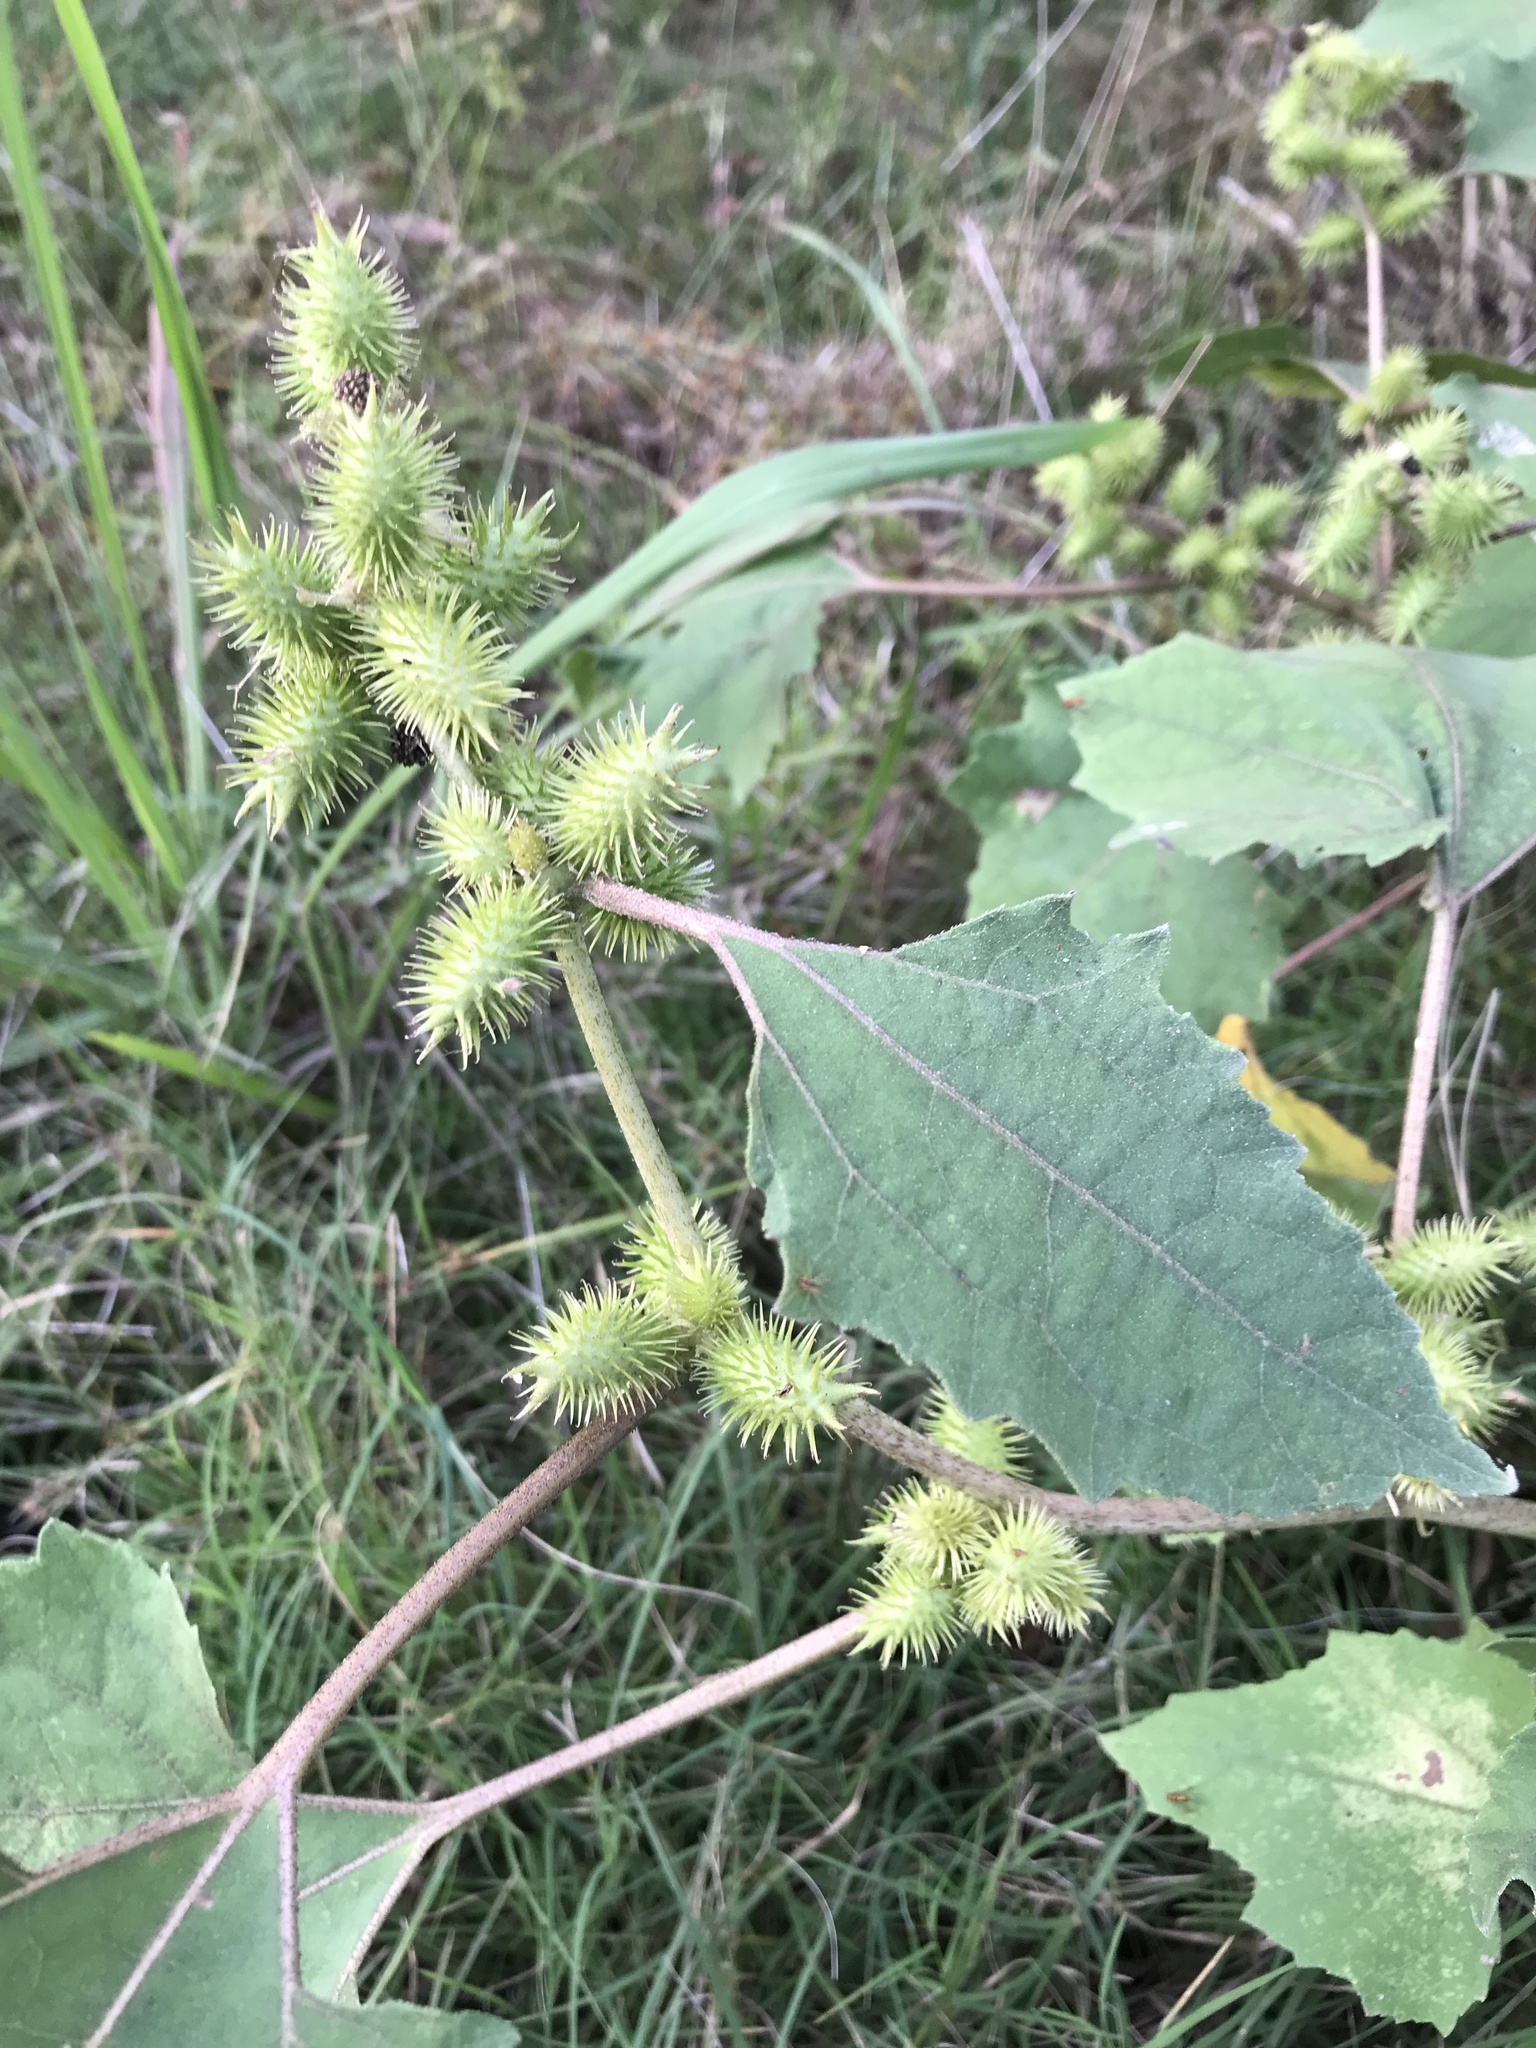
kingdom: Plantae
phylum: Tracheophyta
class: Magnoliopsida
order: Asterales
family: Asteraceae
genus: Xanthium
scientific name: Xanthium strumarium
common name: Rough cocklebur
